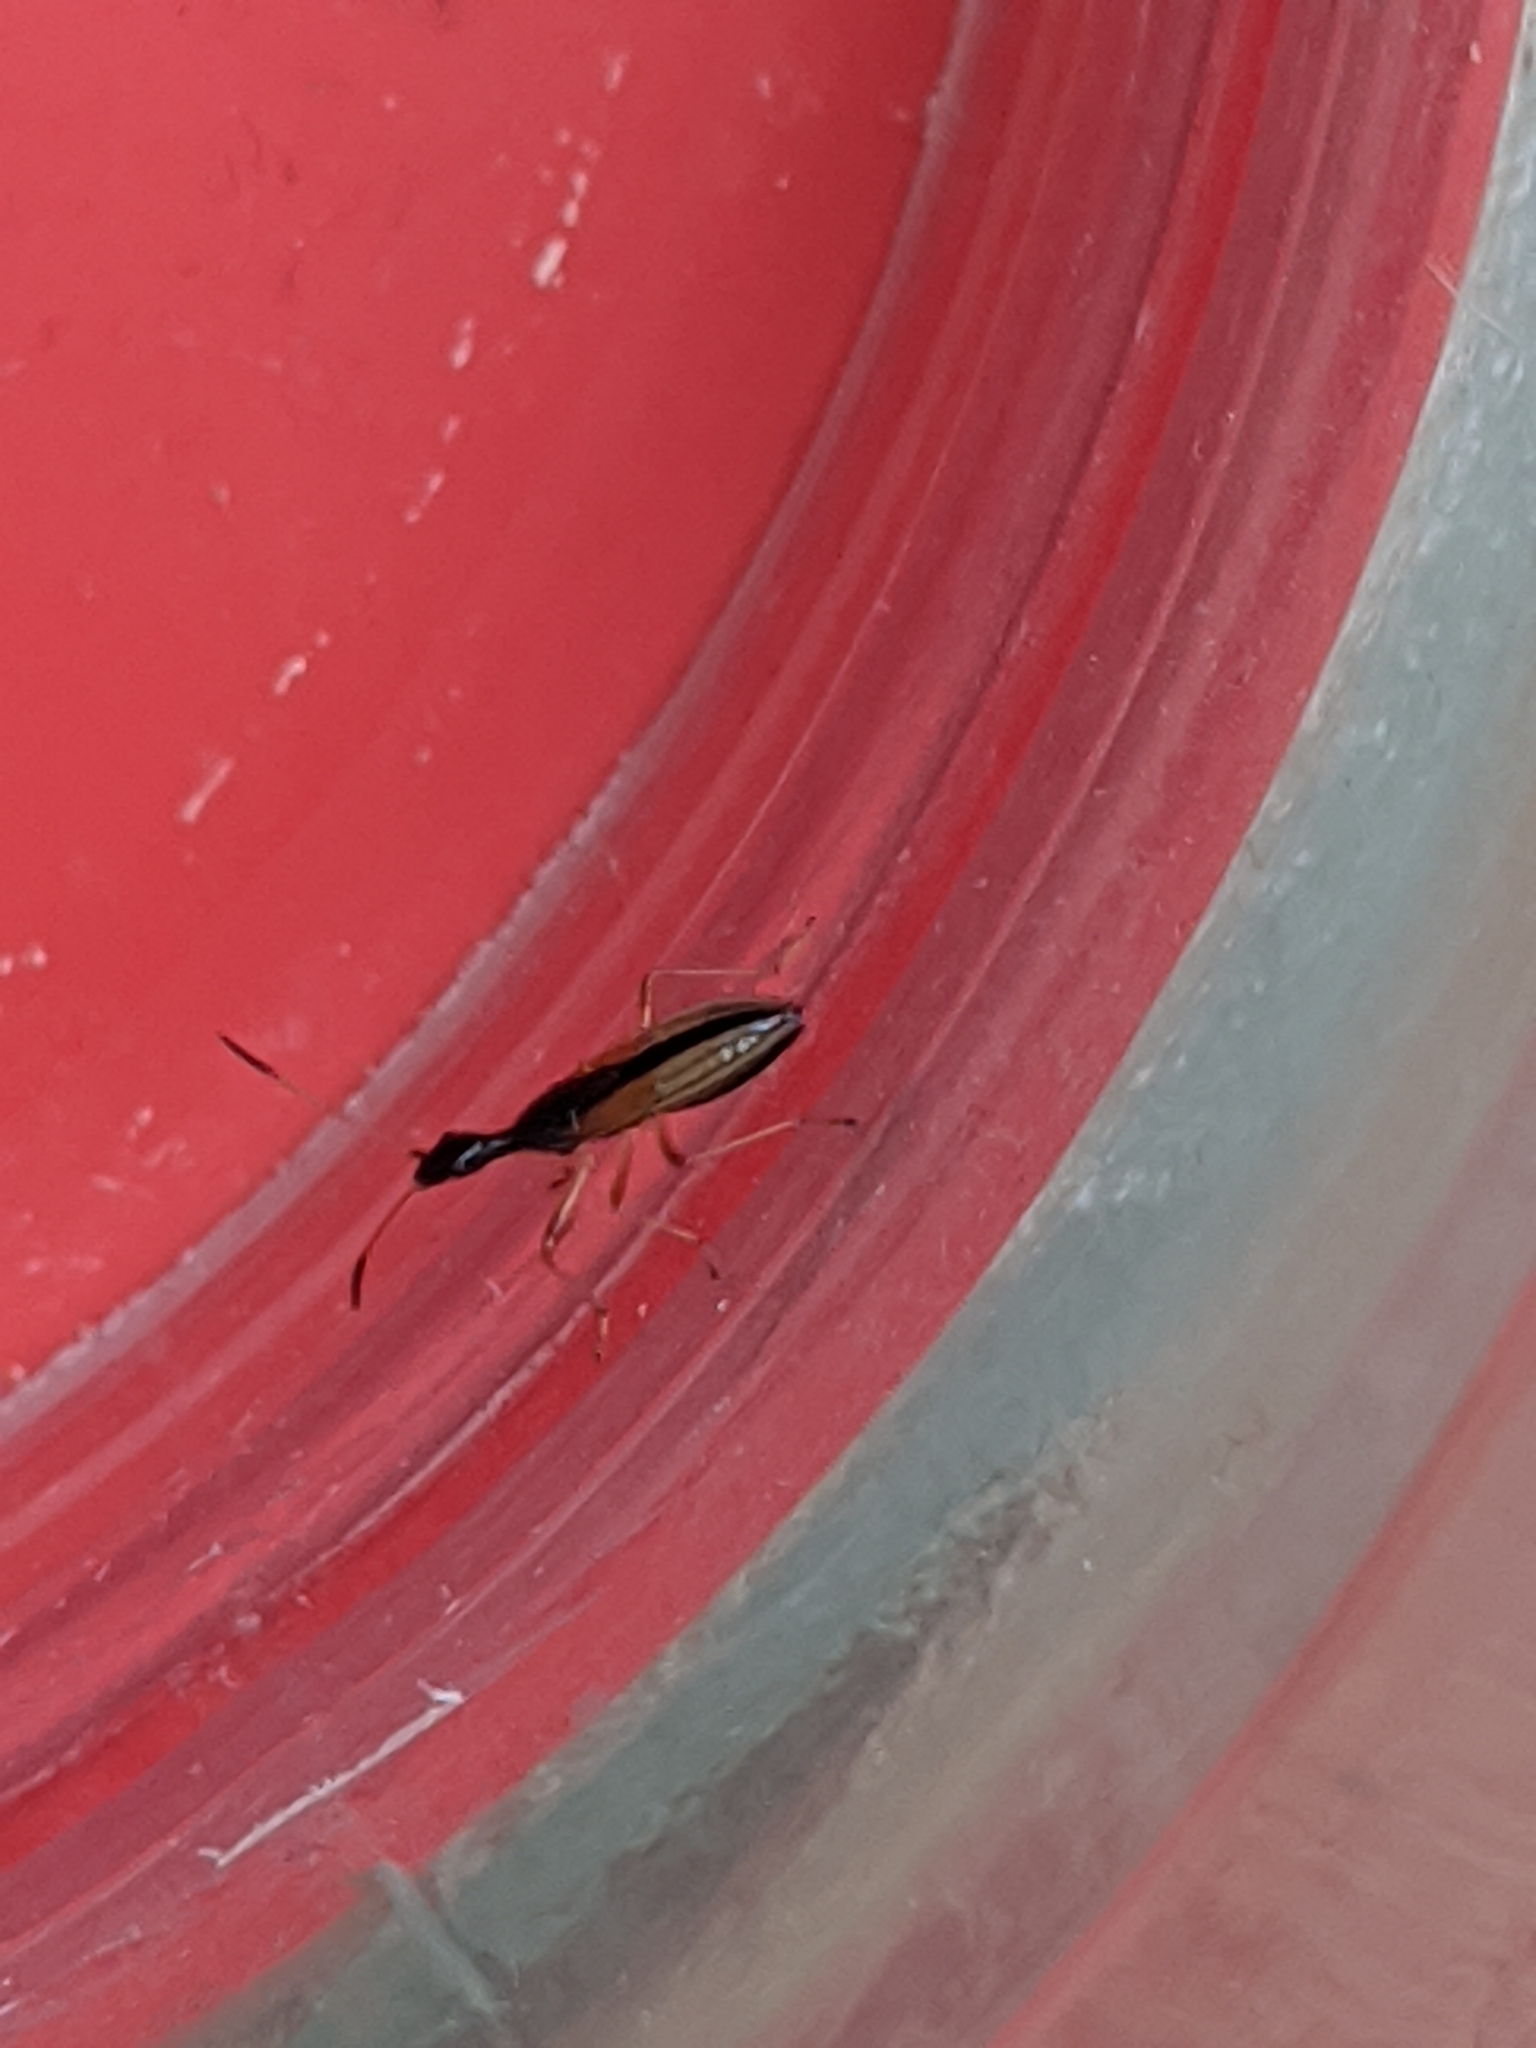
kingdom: Animalia
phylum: Arthropoda
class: Insecta
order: Hemiptera
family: Rhyparochromidae
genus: Myodocha
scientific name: Myodocha serripes
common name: Long-necked seed bug
